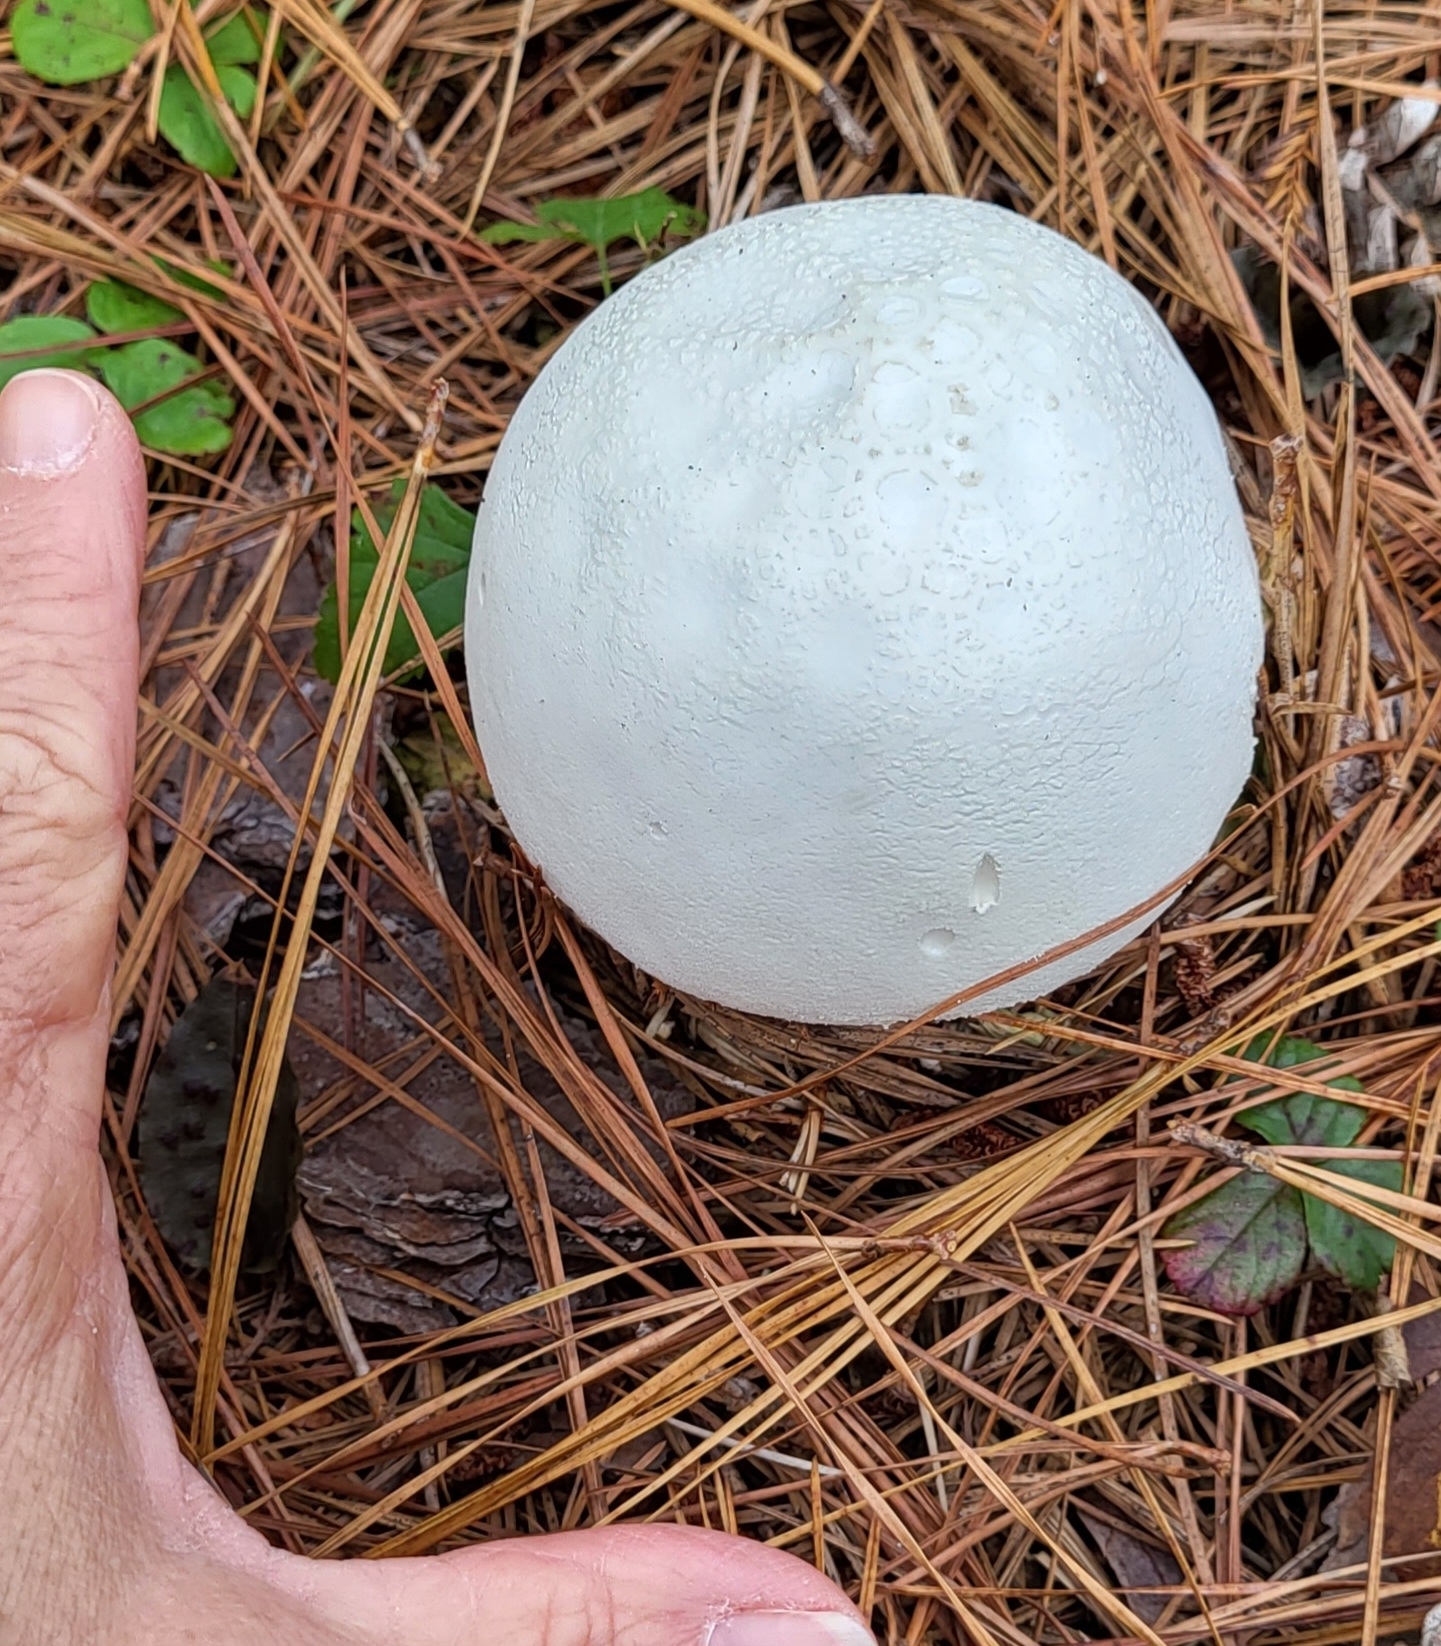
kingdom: Fungi
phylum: Basidiomycota
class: Agaricomycetes
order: Agaricales
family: Amanitaceae
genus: Amanita
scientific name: Amanita polypyramis
